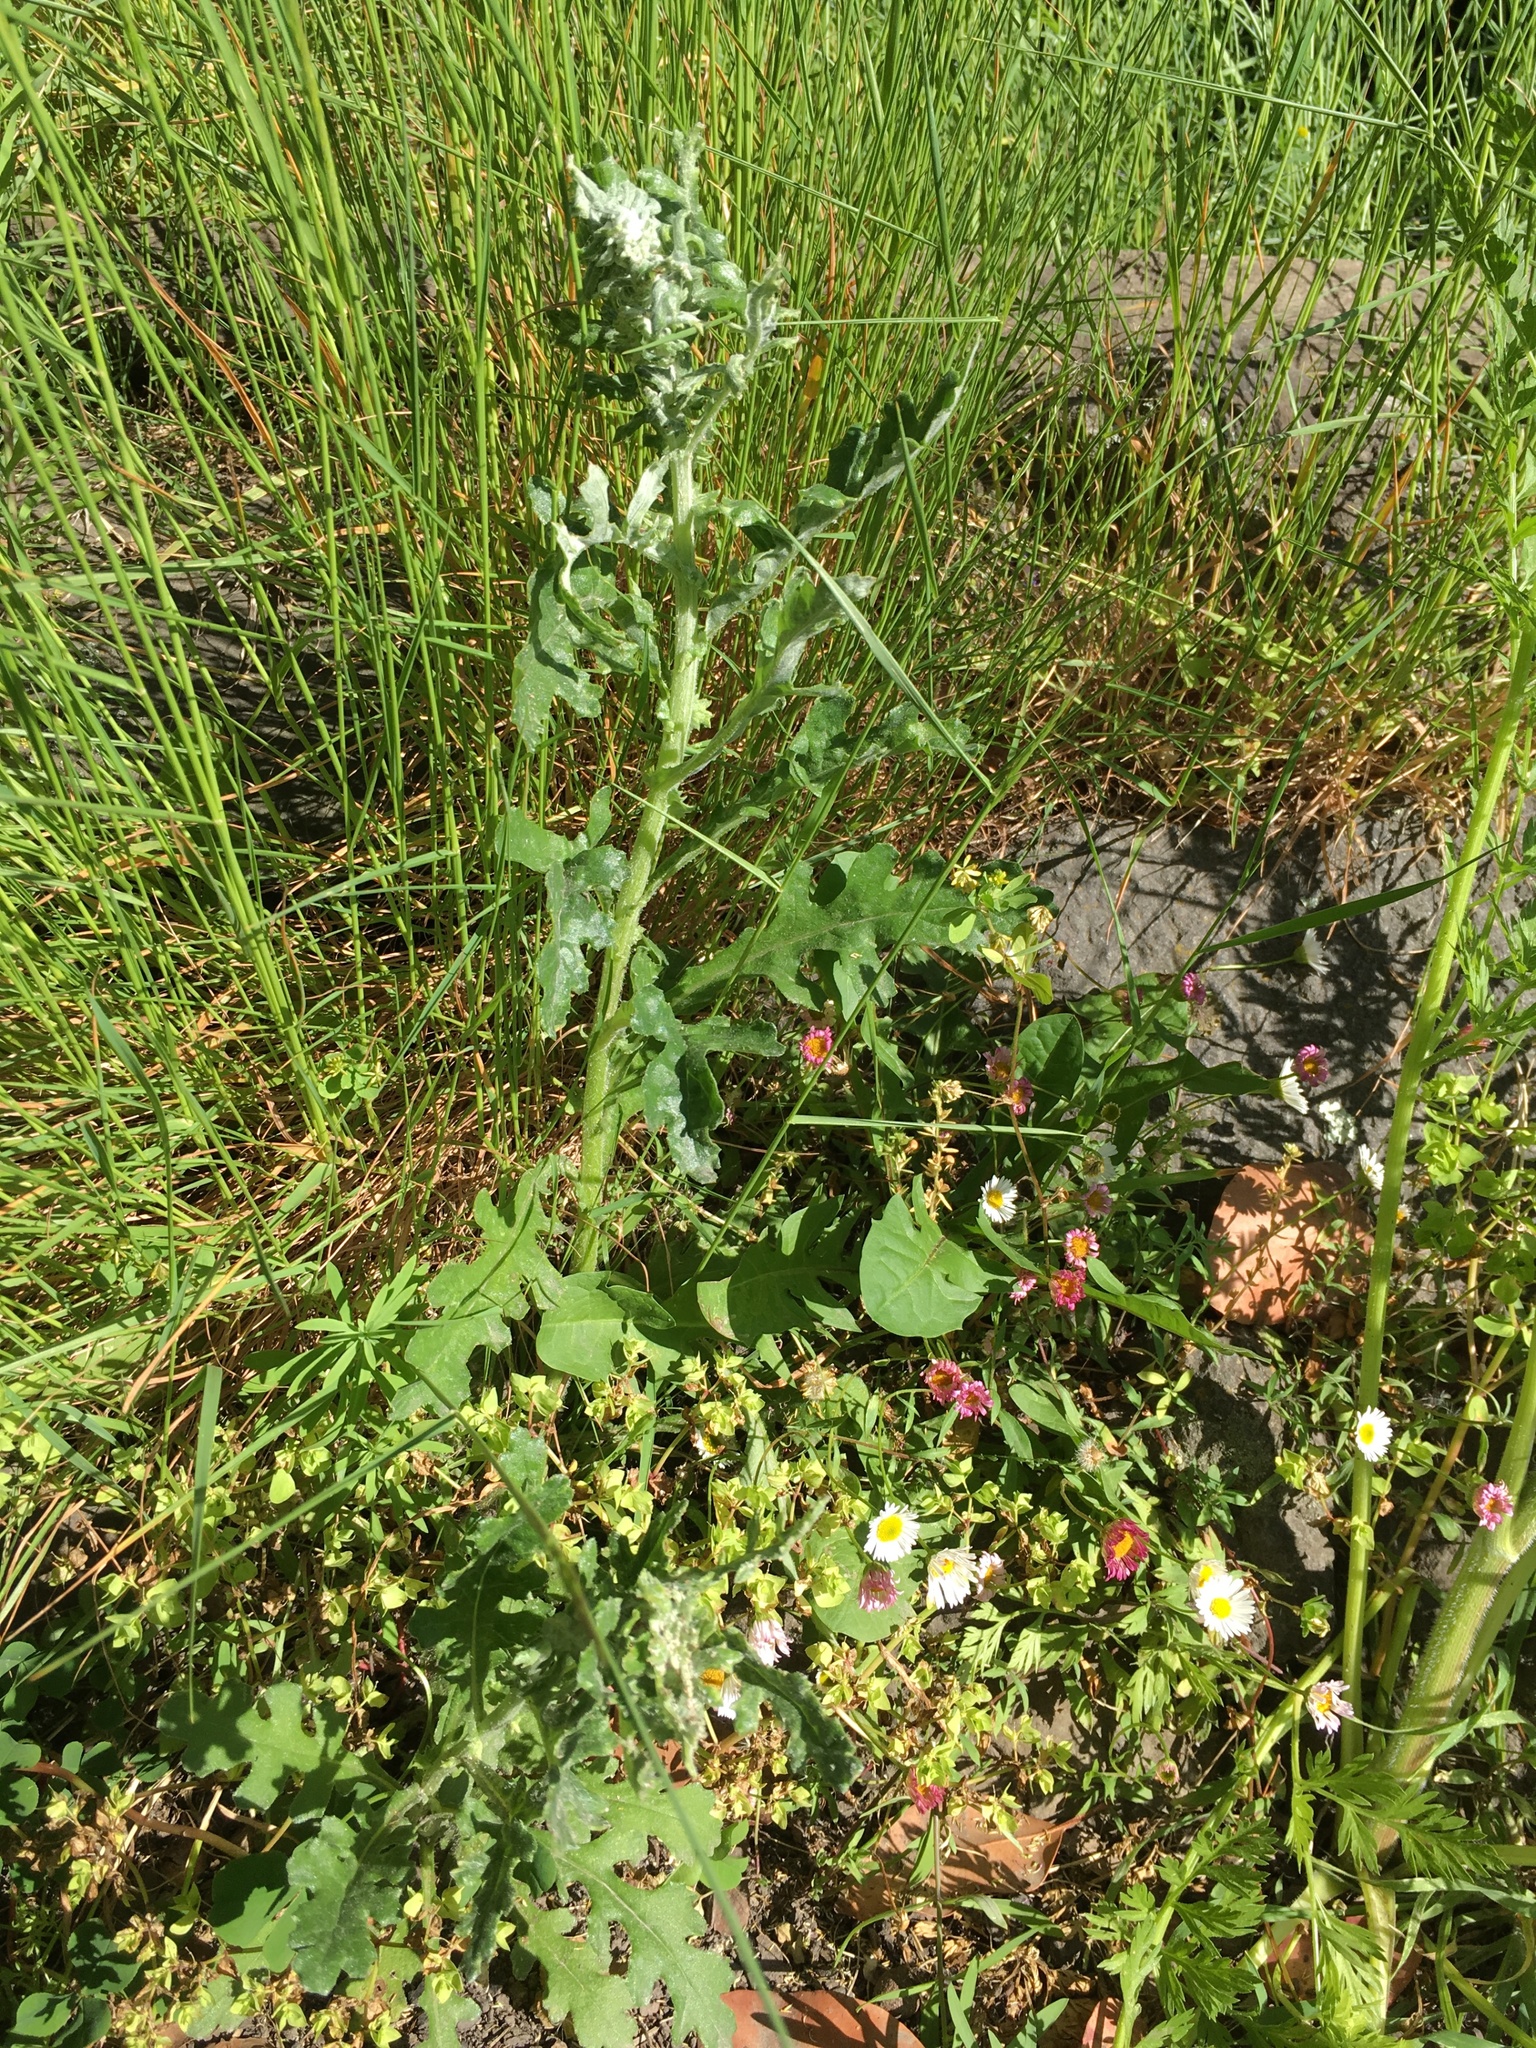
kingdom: Plantae
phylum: Tracheophyta
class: Magnoliopsida
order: Asterales
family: Asteraceae
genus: Senecio
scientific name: Senecio glomeratus
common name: Cutleaf burnweed
